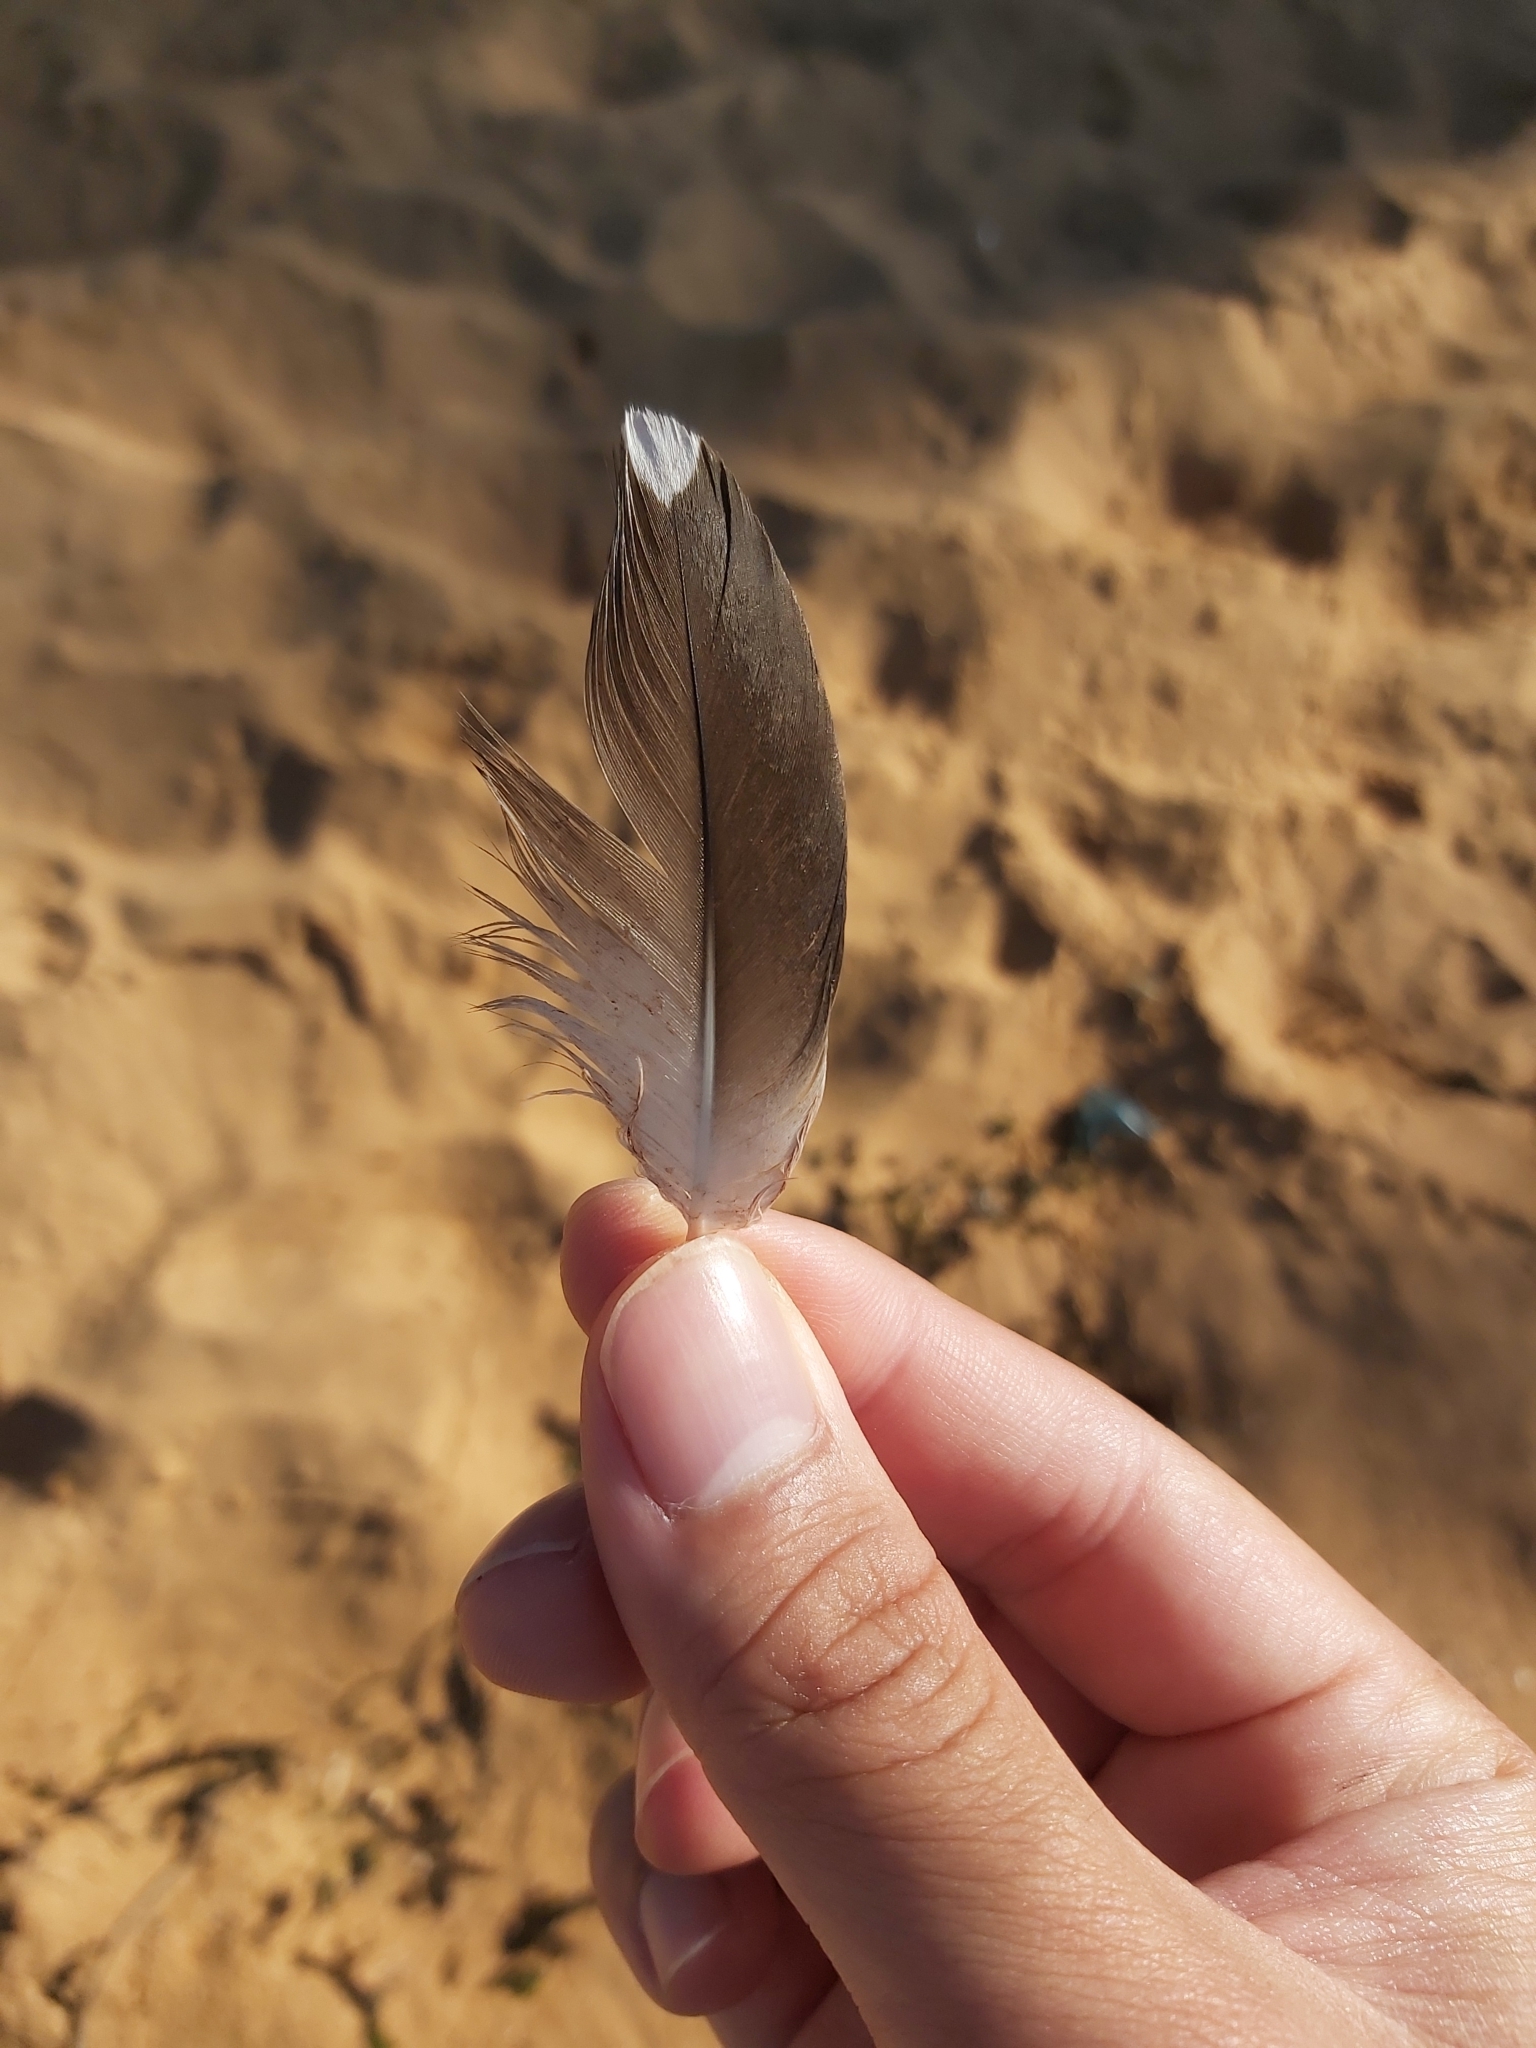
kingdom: Animalia
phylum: Chordata
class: Aves
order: Suliformes
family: Sulidae
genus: Morus
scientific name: Morus serrator
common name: Australasian gannet
